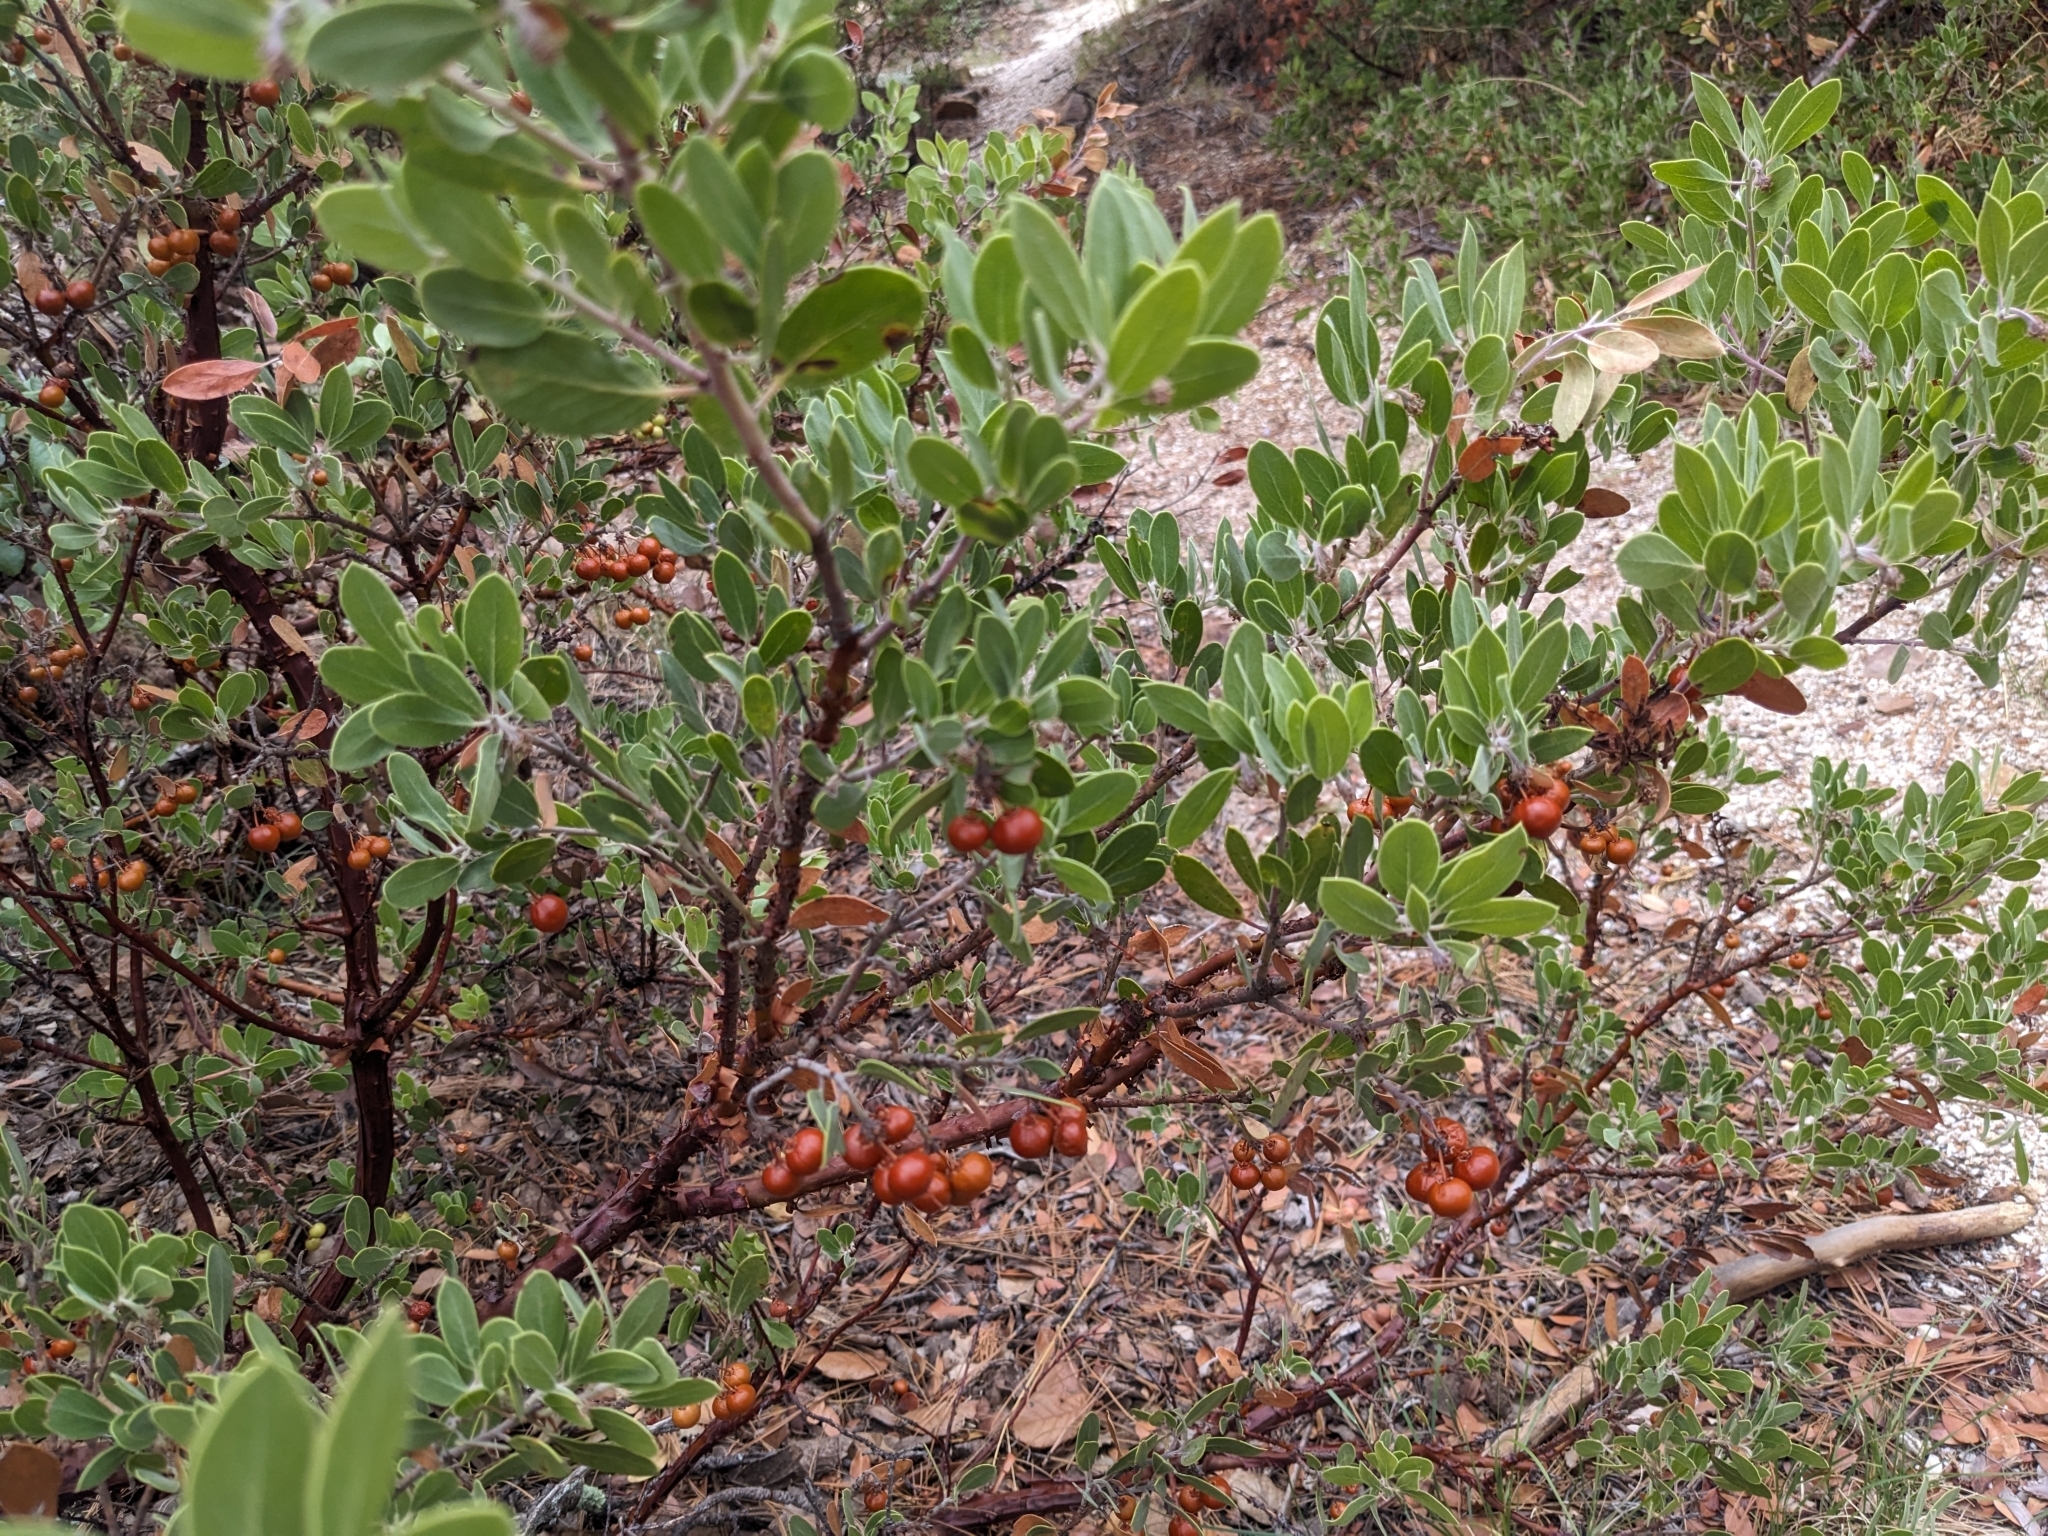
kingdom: Plantae
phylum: Tracheophyta
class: Magnoliopsida
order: Ericales
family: Ericaceae
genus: Arctostaphylos
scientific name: Arctostaphylos pungens
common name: Mexican manzanita
